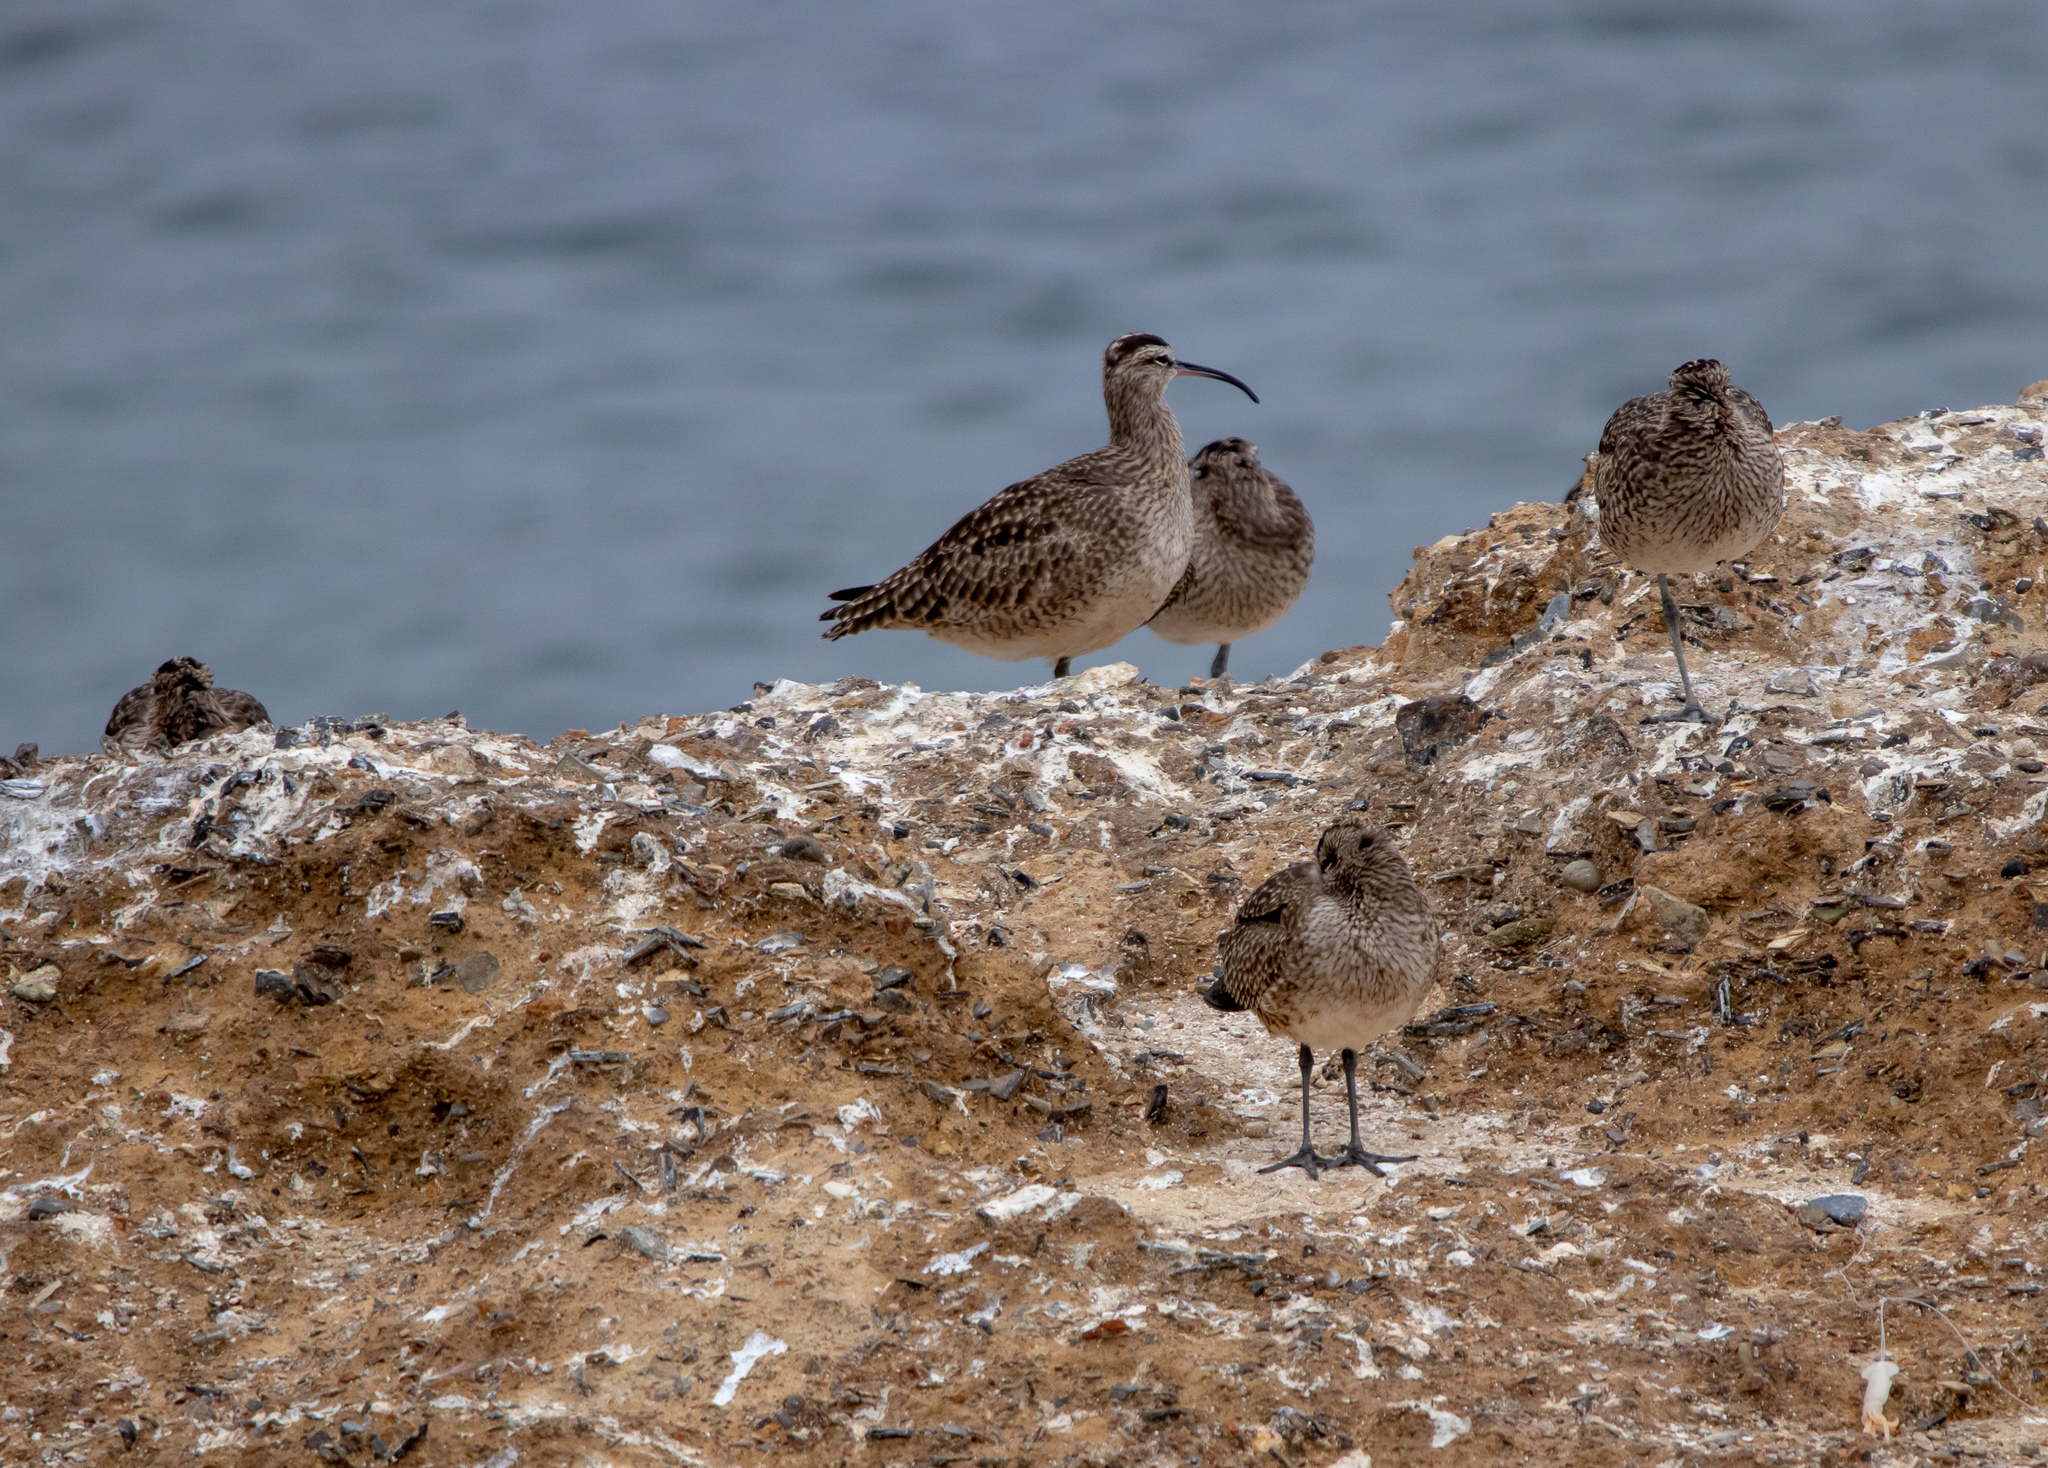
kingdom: Animalia
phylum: Chordata
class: Aves
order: Charadriiformes
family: Scolopacidae
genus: Numenius
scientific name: Numenius phaeopus
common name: Whimbrel
